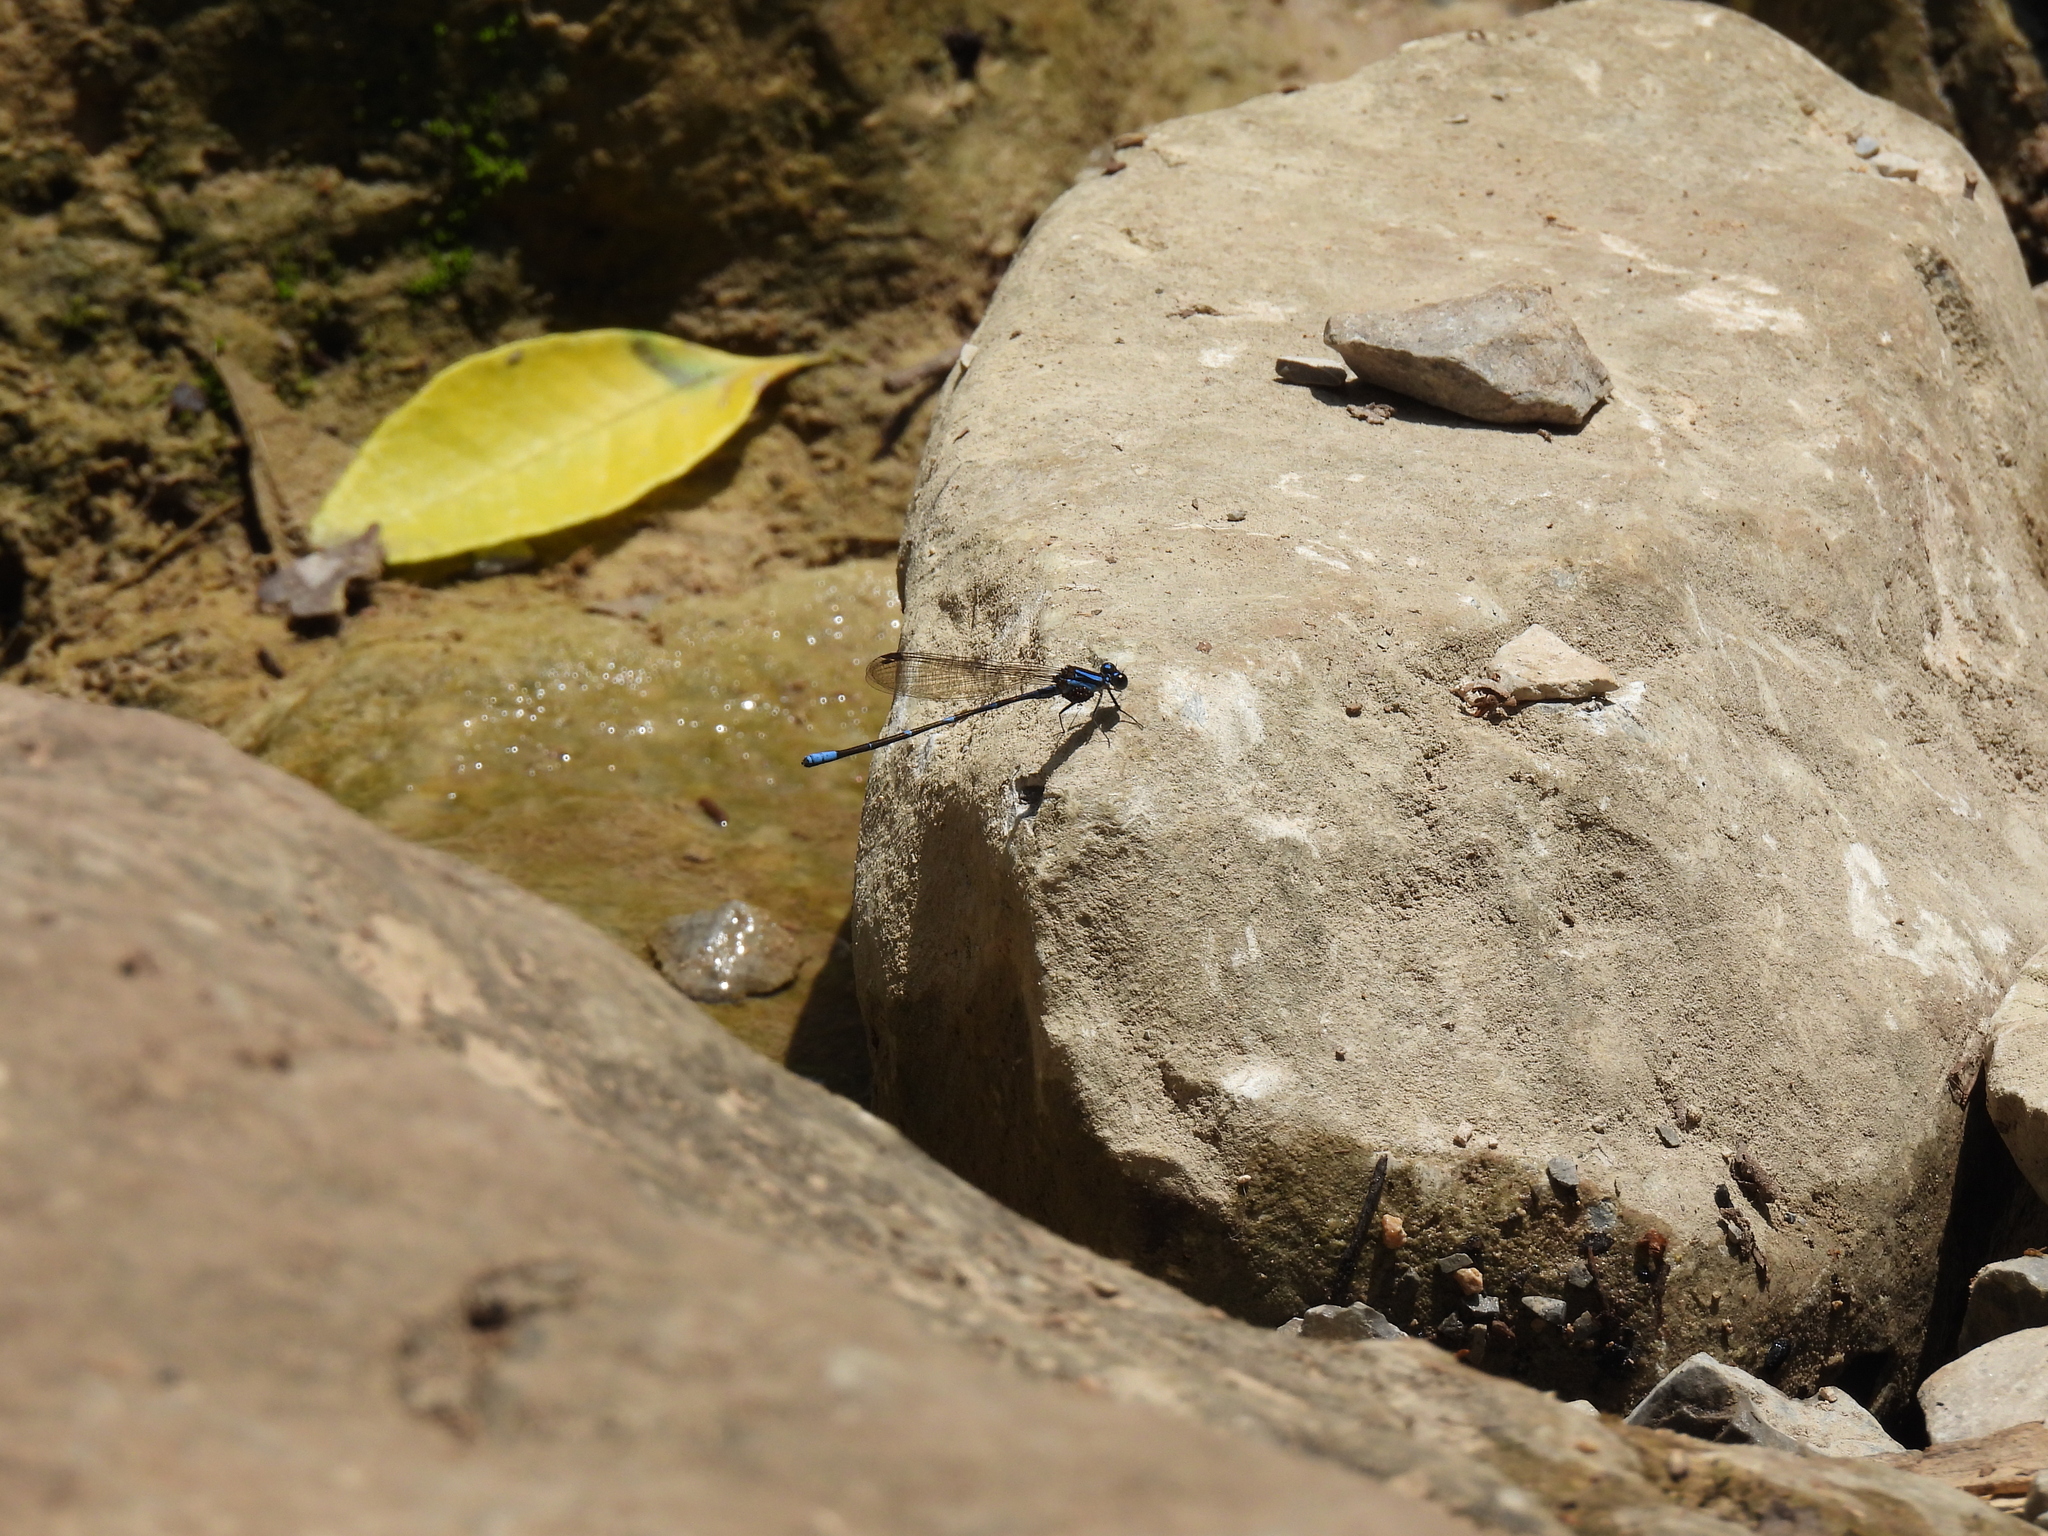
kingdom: Animalia
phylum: Arthropoda
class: Insecta
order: Odonata
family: Coenagrionidae
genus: Argia
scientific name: Argia oculata
